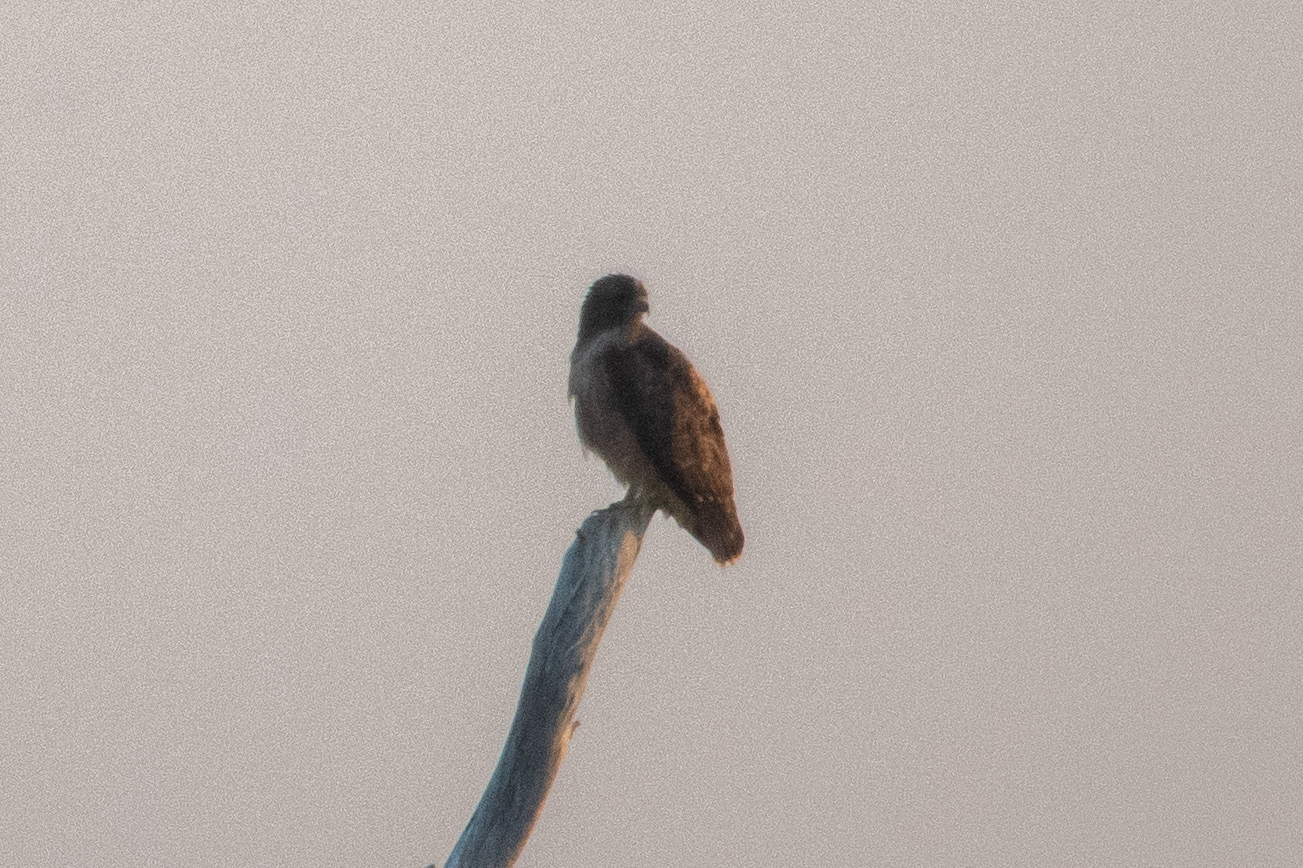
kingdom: Animalia
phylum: Chordata
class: Aves
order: Accipitriformes
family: Accipitridae
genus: Buteo
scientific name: Buteo jamaicensis
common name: Red-tailed hawk
